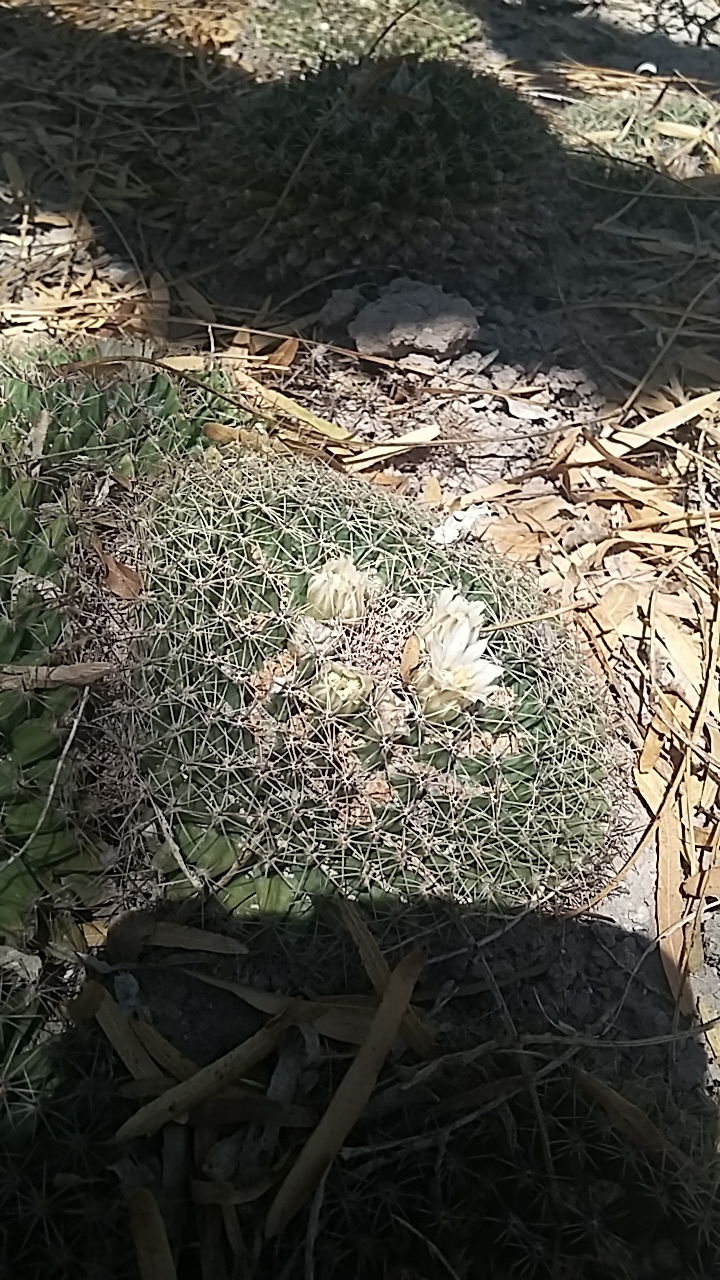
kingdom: Plantae
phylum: Tracheophyta
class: Magnoliopsida
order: Caryophyllales
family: Cactaceae
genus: Mammillaria
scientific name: Mammillaria heyderi
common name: Little nipple cactus
